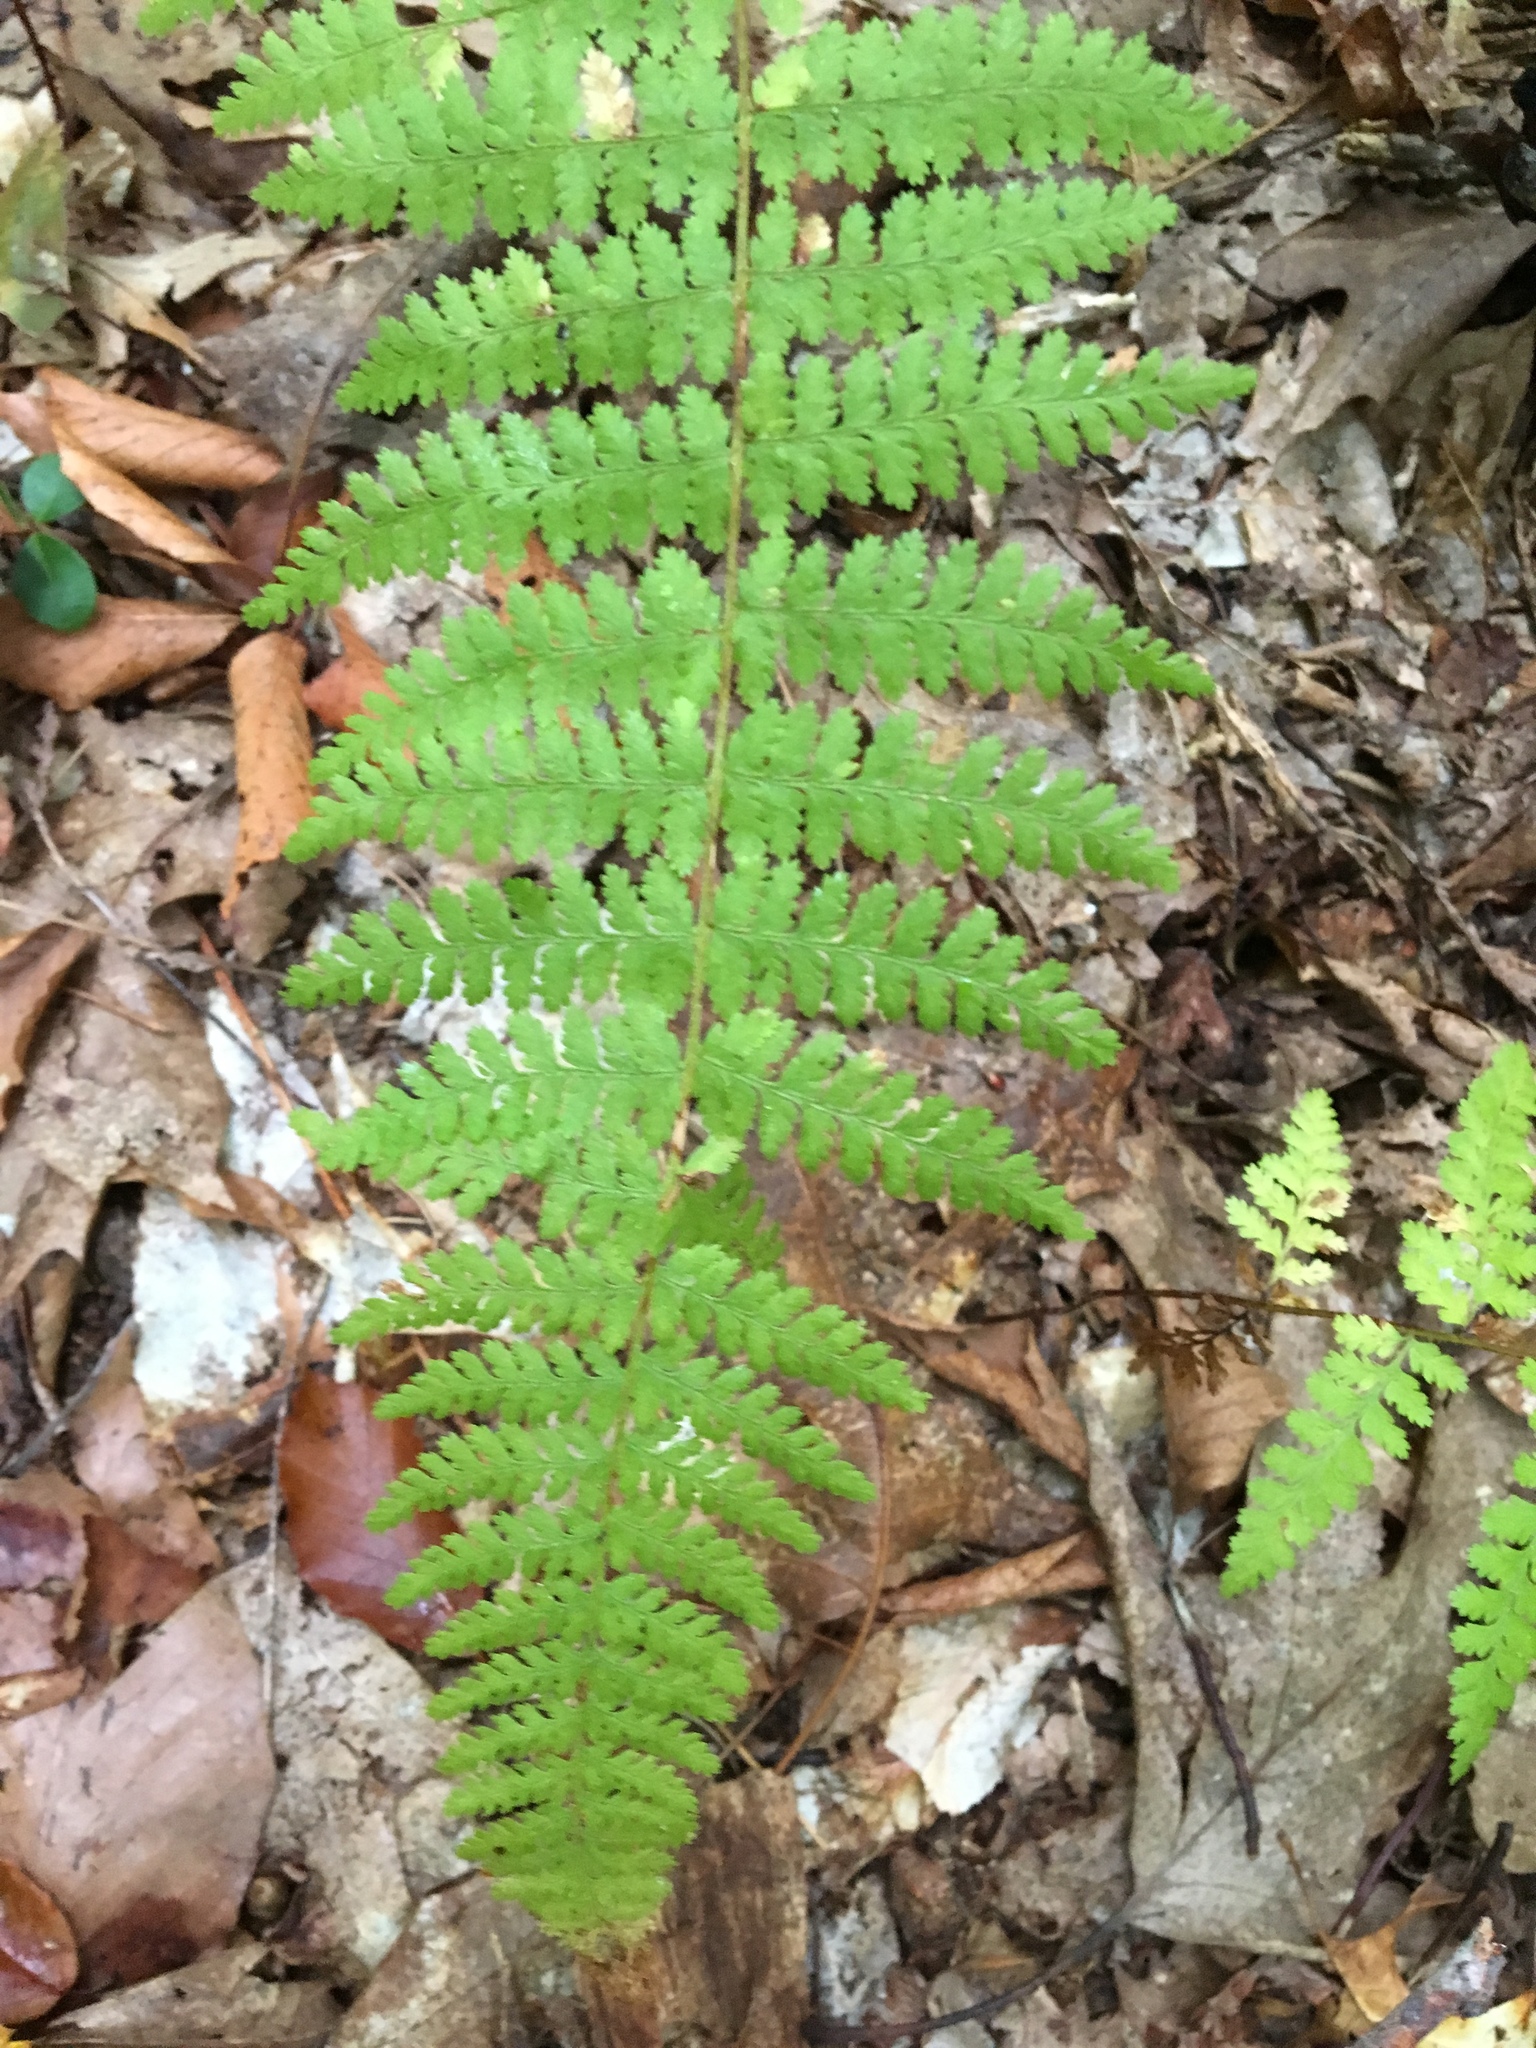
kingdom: Plantae
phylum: Tracheophyta
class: Polypodiopsida
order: Polypodiales
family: Dennstaedtiaceae
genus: Sitobolium
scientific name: Sitobolium punctilobum
